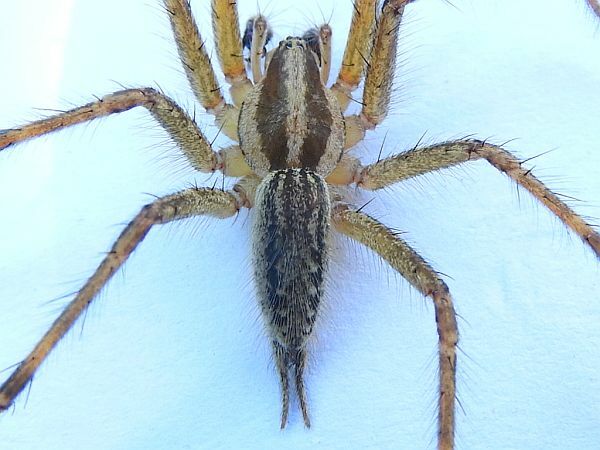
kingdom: Animalia
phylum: Arthropoda
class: Arachnida
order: Araneae
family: Agelenidae
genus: Agelenopsis
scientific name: Agelenopsis
